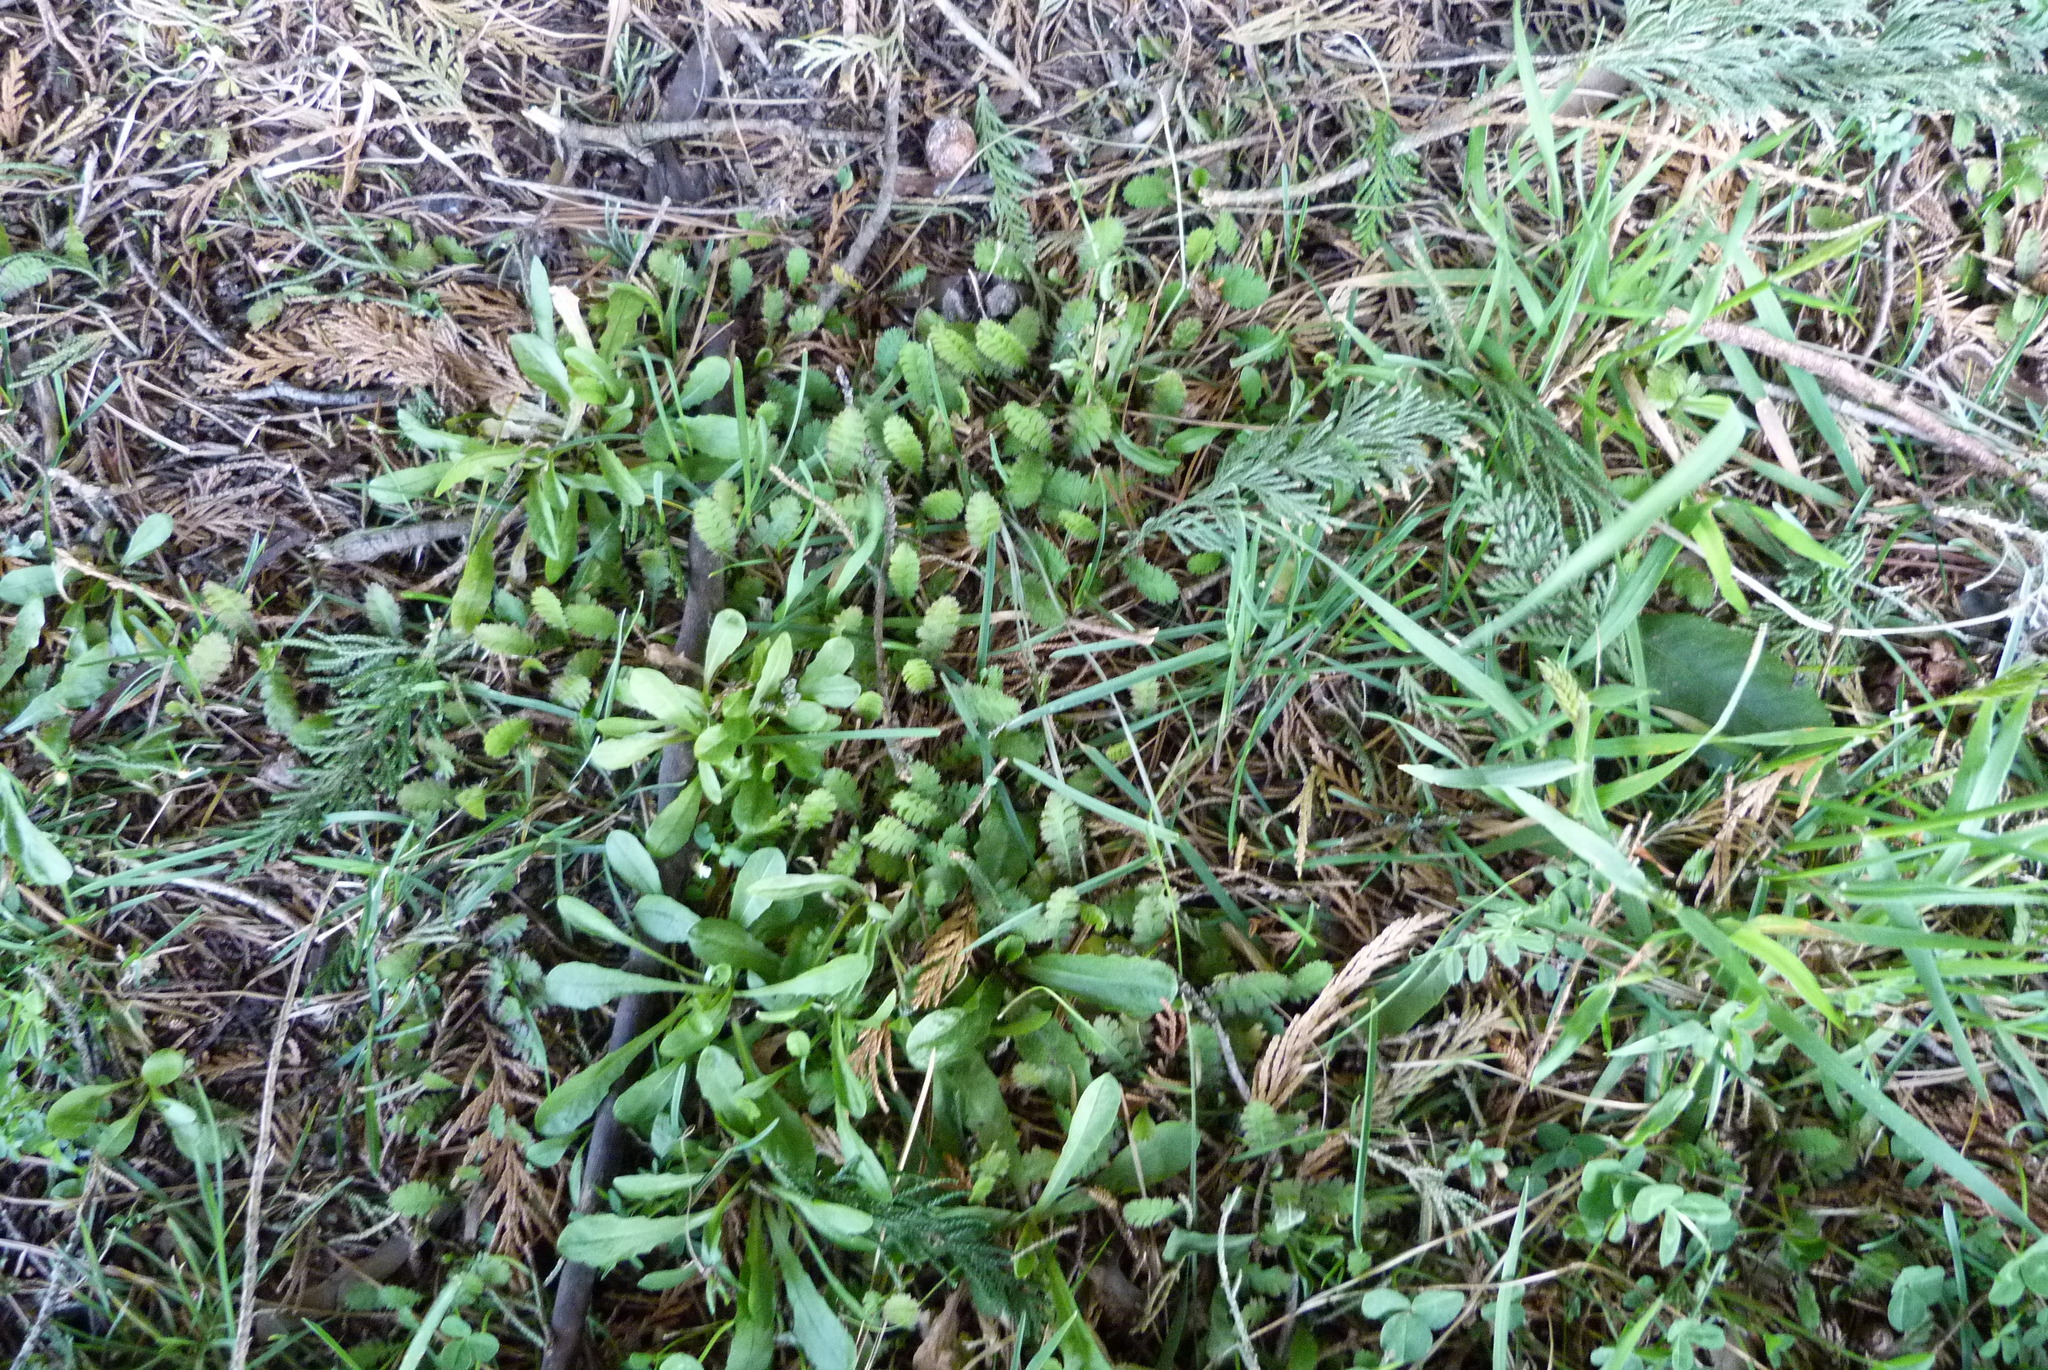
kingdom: Plantae
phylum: Tracheophyta
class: Magnoliopsida
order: Asterales
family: Asteraceae
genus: Leptinella
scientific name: Leptinella
